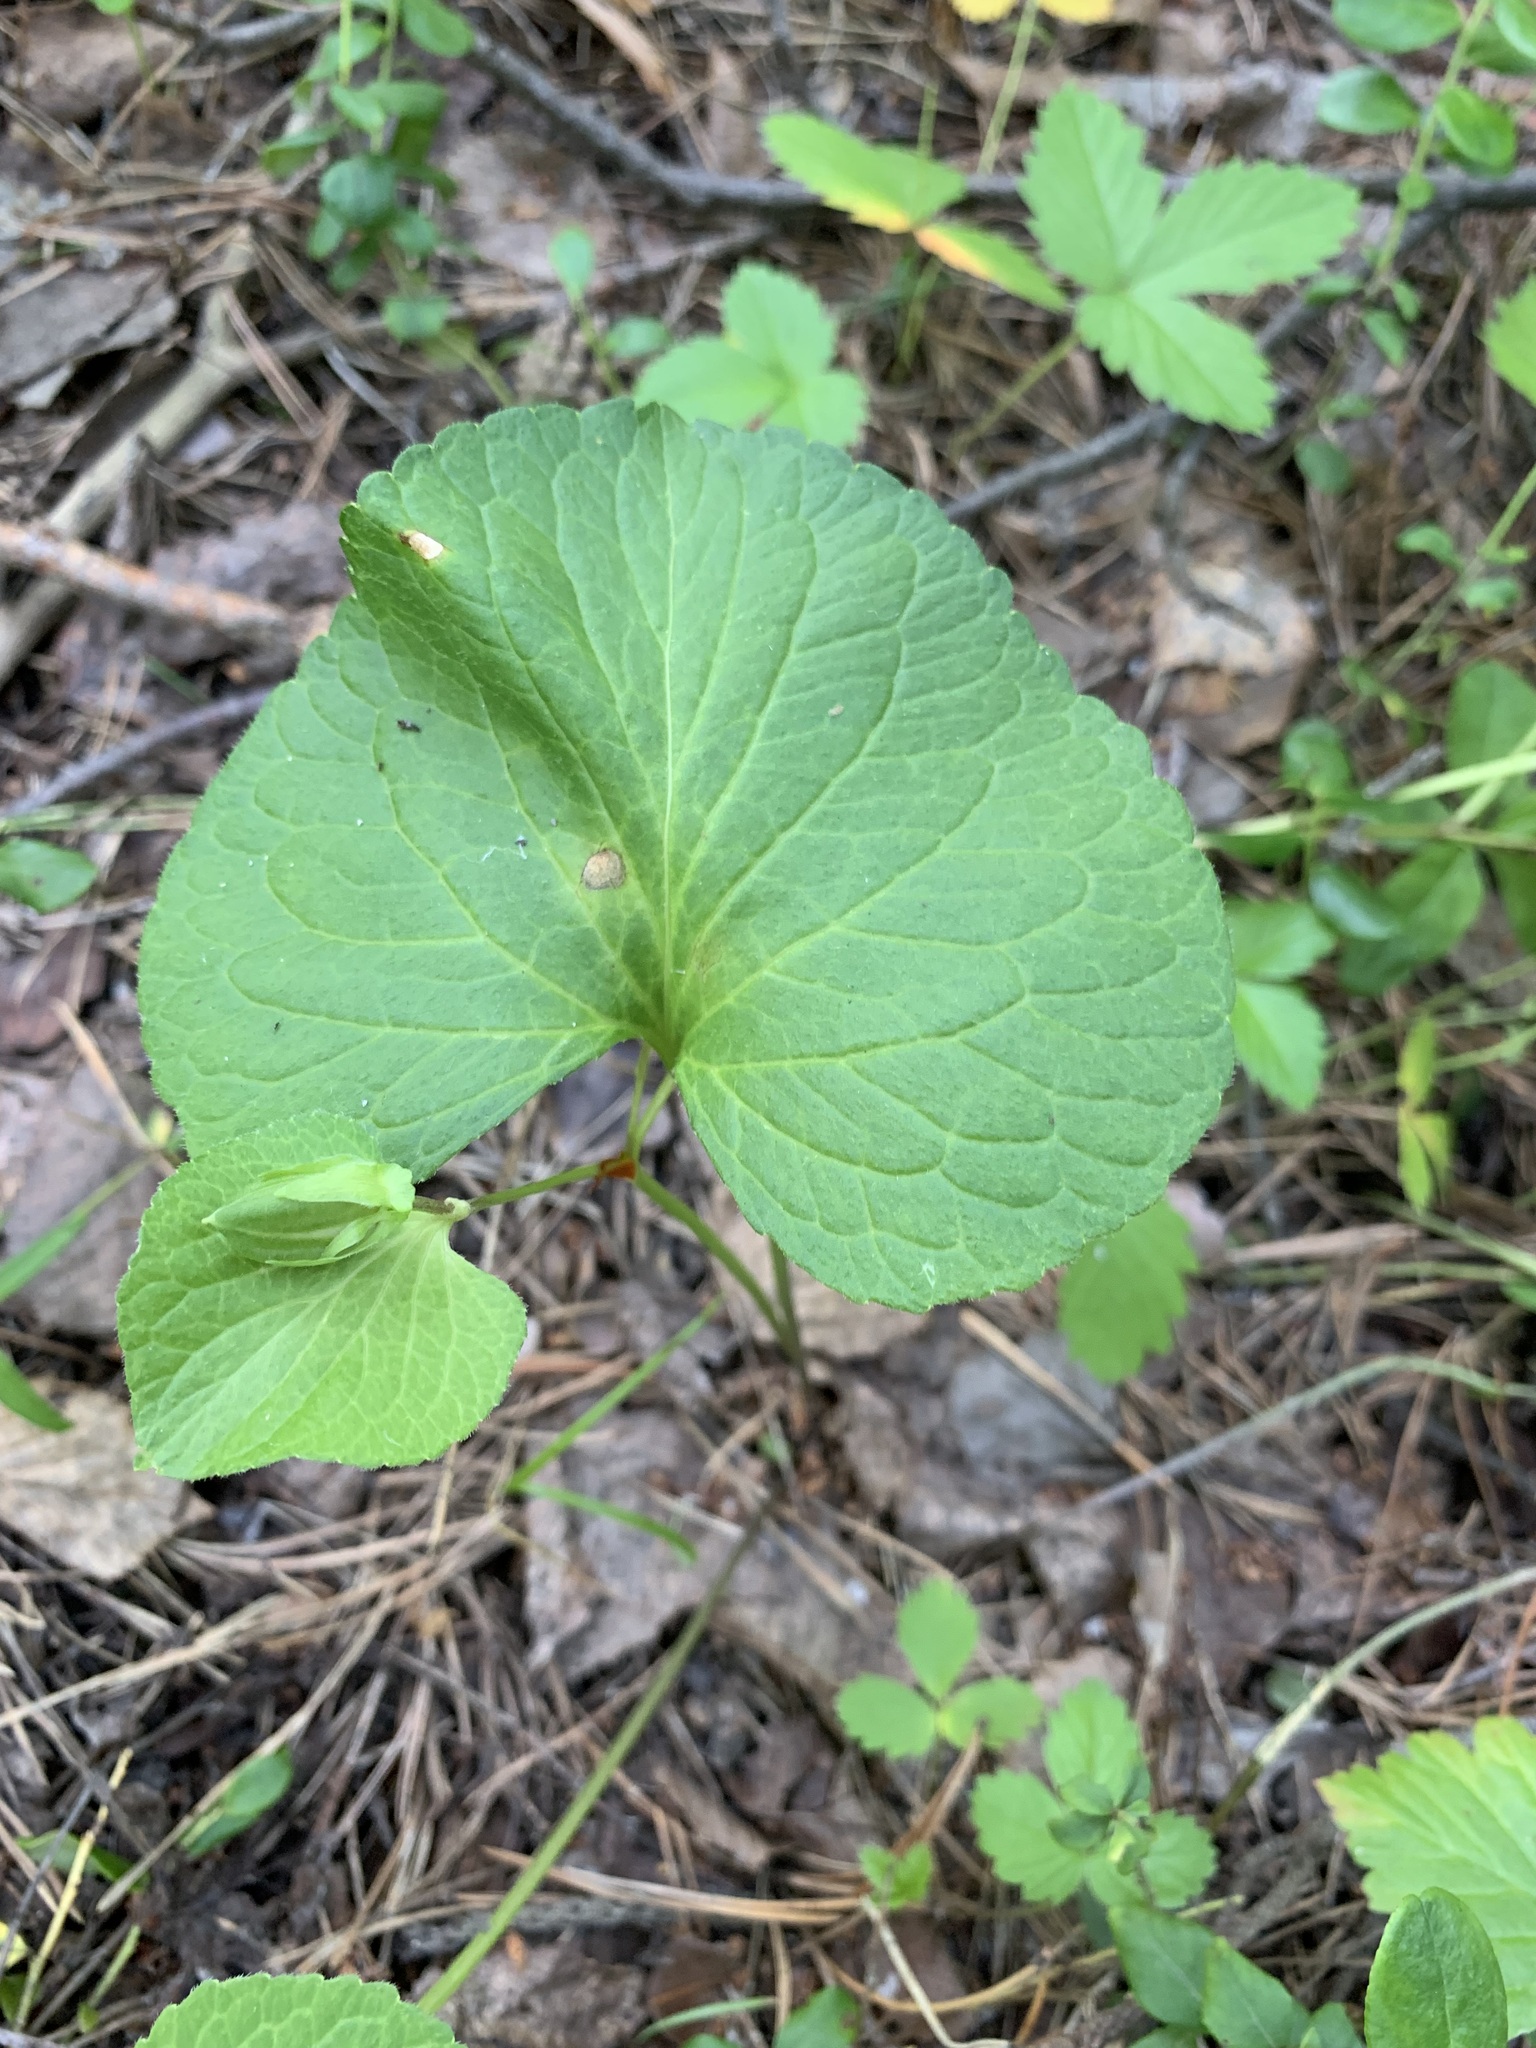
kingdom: Plantae
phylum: Tracheophyta
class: Magnoliopsida
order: Malpighiales
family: Violaceae
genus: Viola
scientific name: Viola mirabilis
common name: Wonder violet
